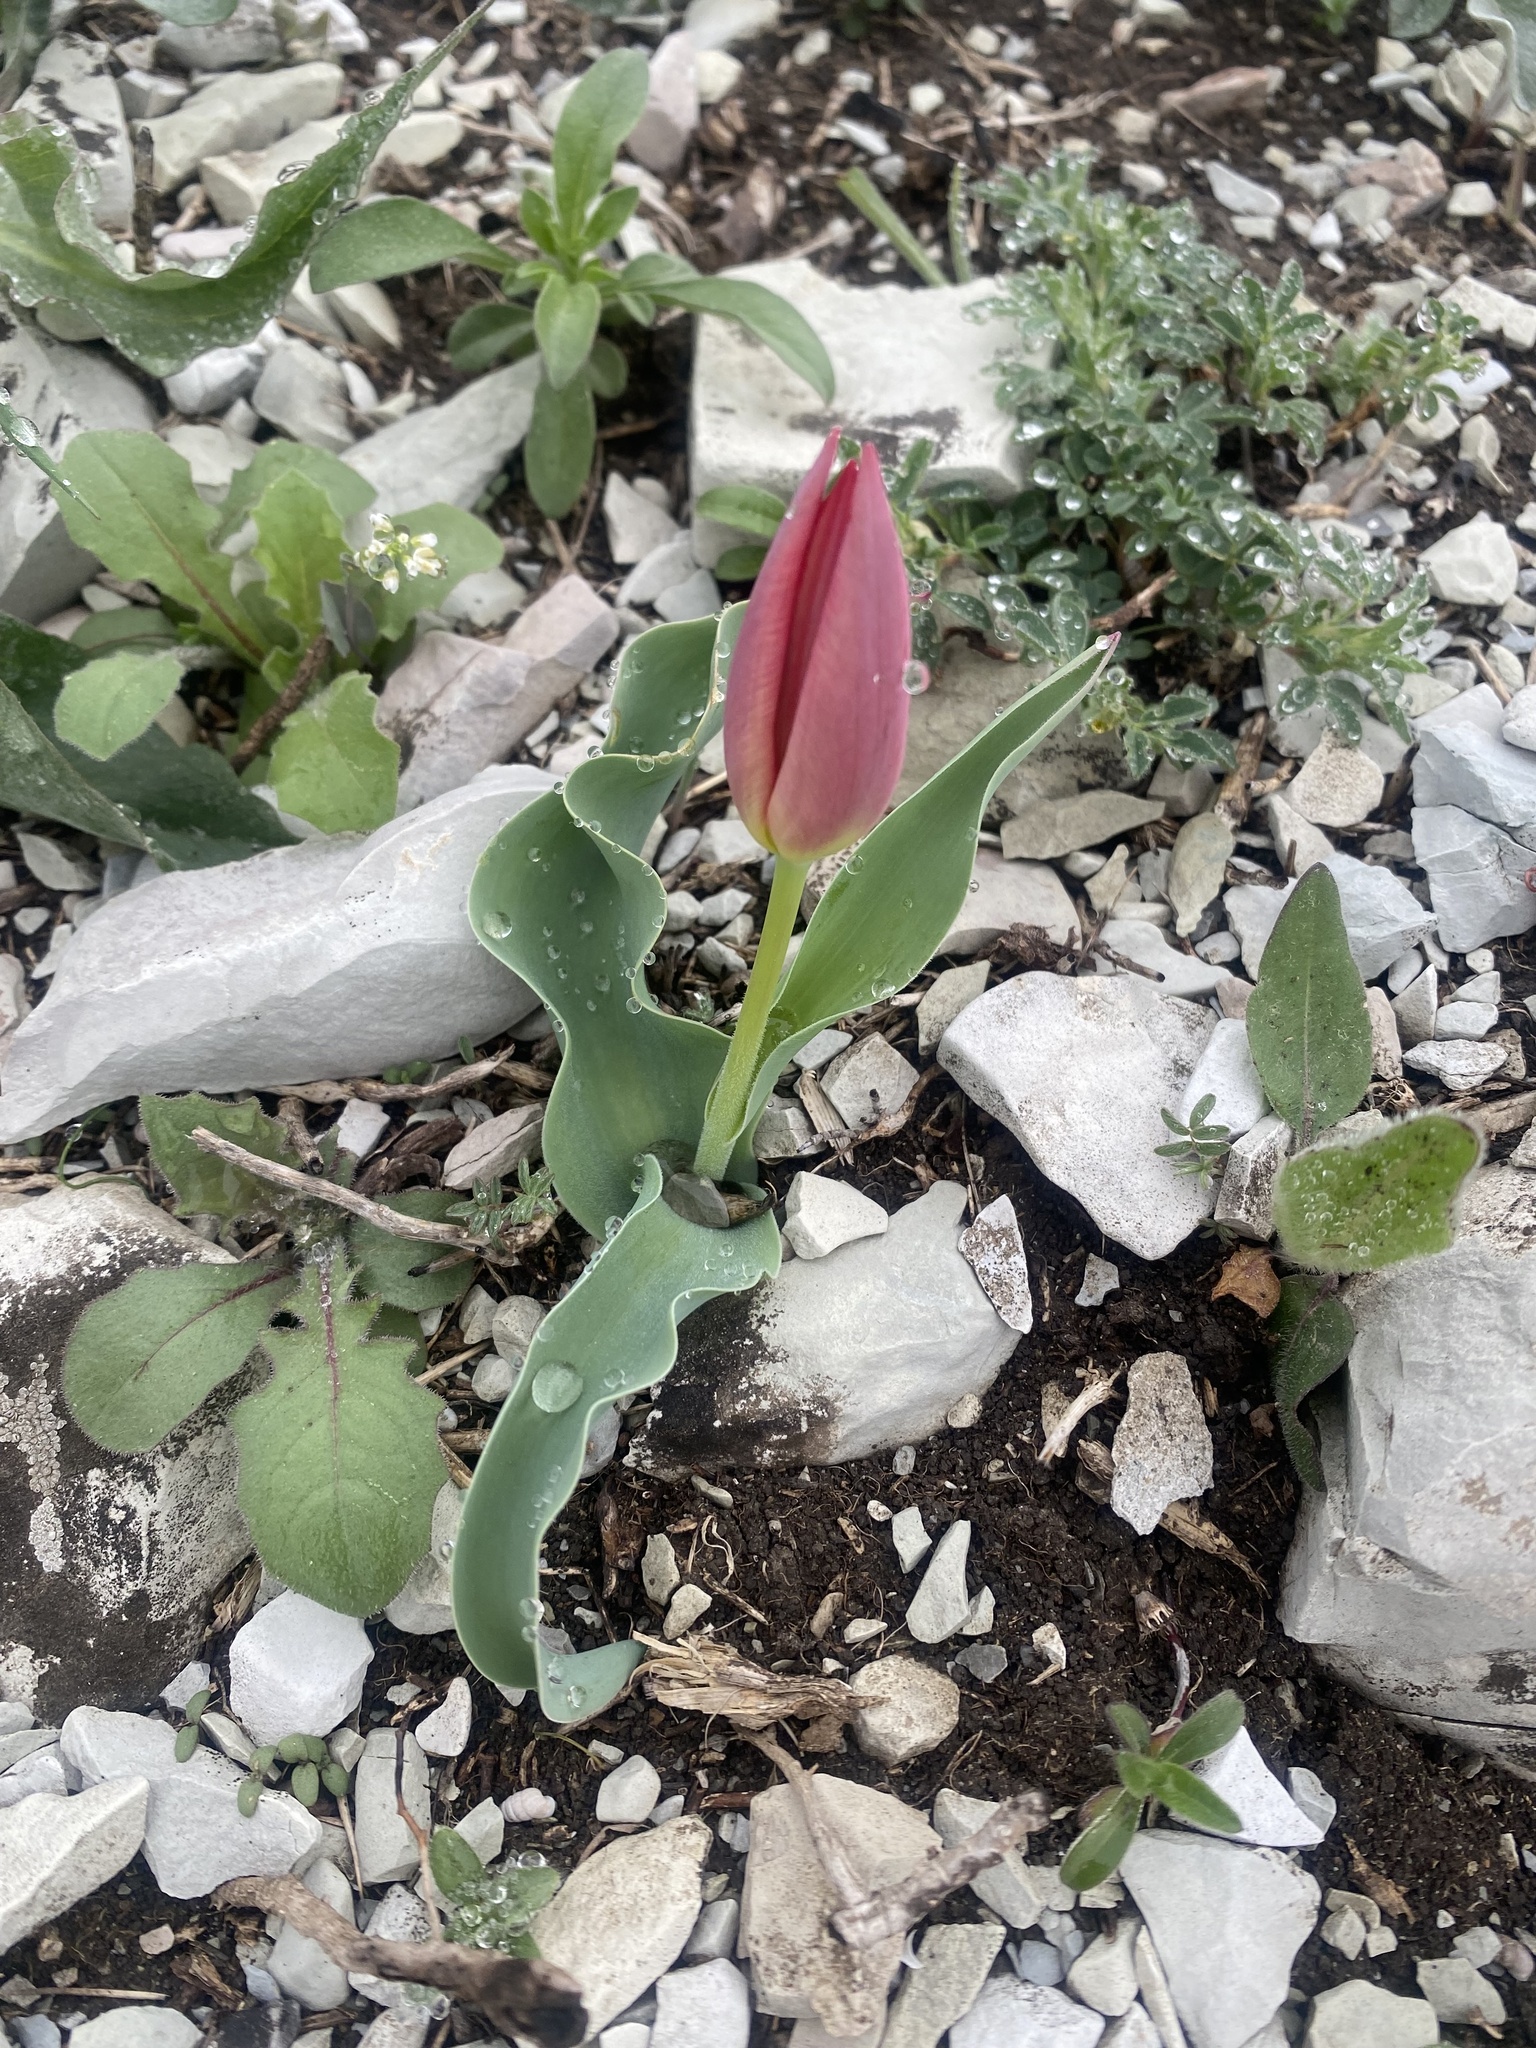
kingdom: Plantae
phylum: Tracheophyta
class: Liliopsida
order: Liliales
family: Liliaceae
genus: Tulipa
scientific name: Tulipa suaveolens
